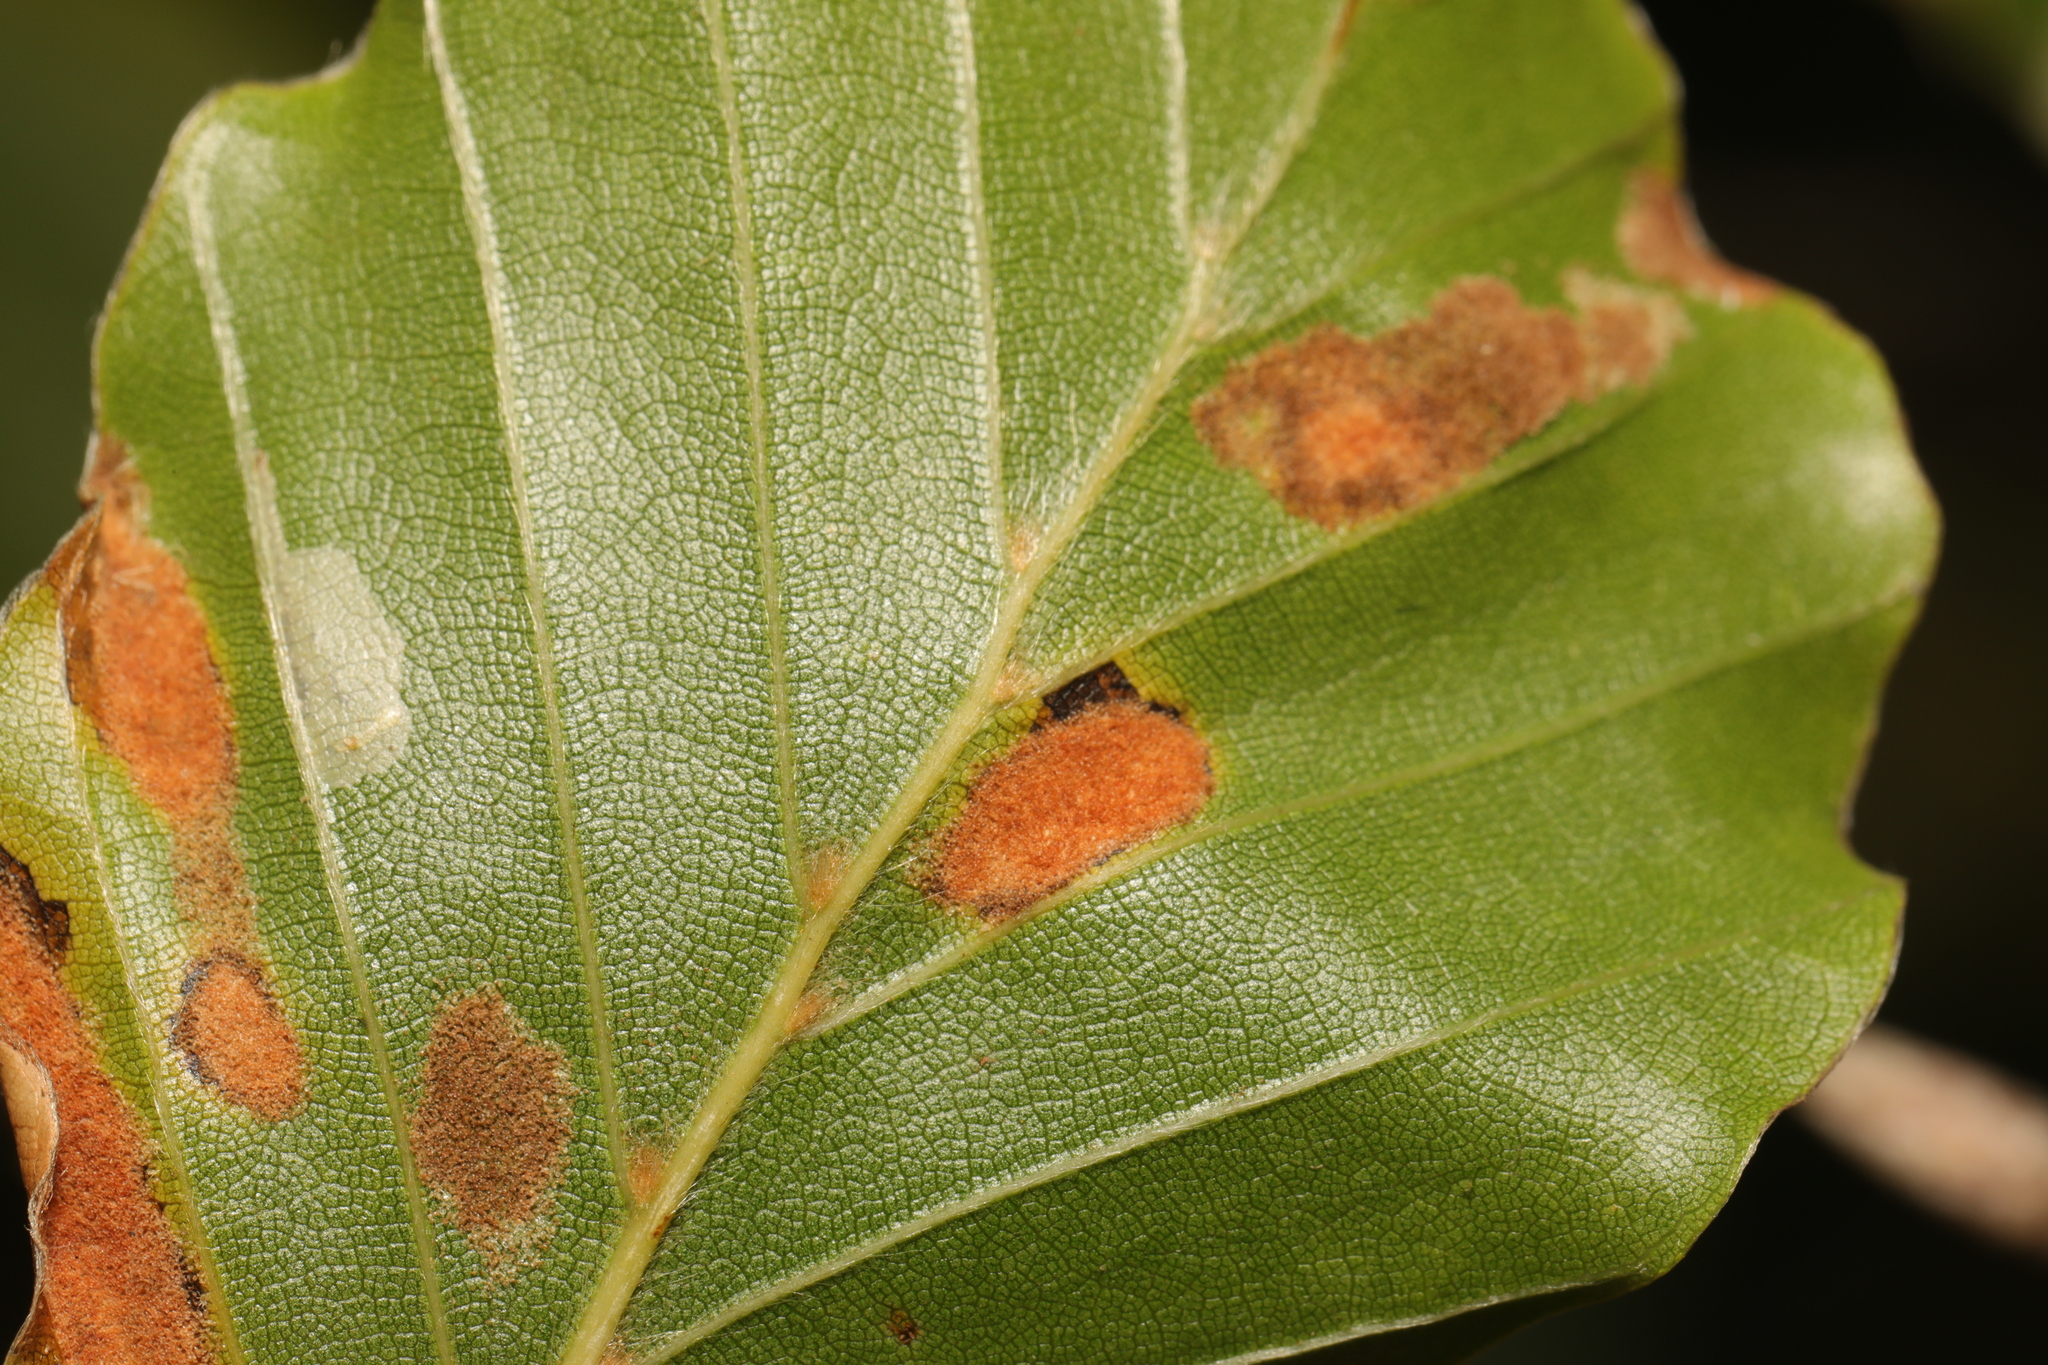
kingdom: Animalia
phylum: Arthropoda
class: Arachnida
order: Trombidiformes
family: Eriophyidae
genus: Aceria
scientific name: Aceria nervisequa
